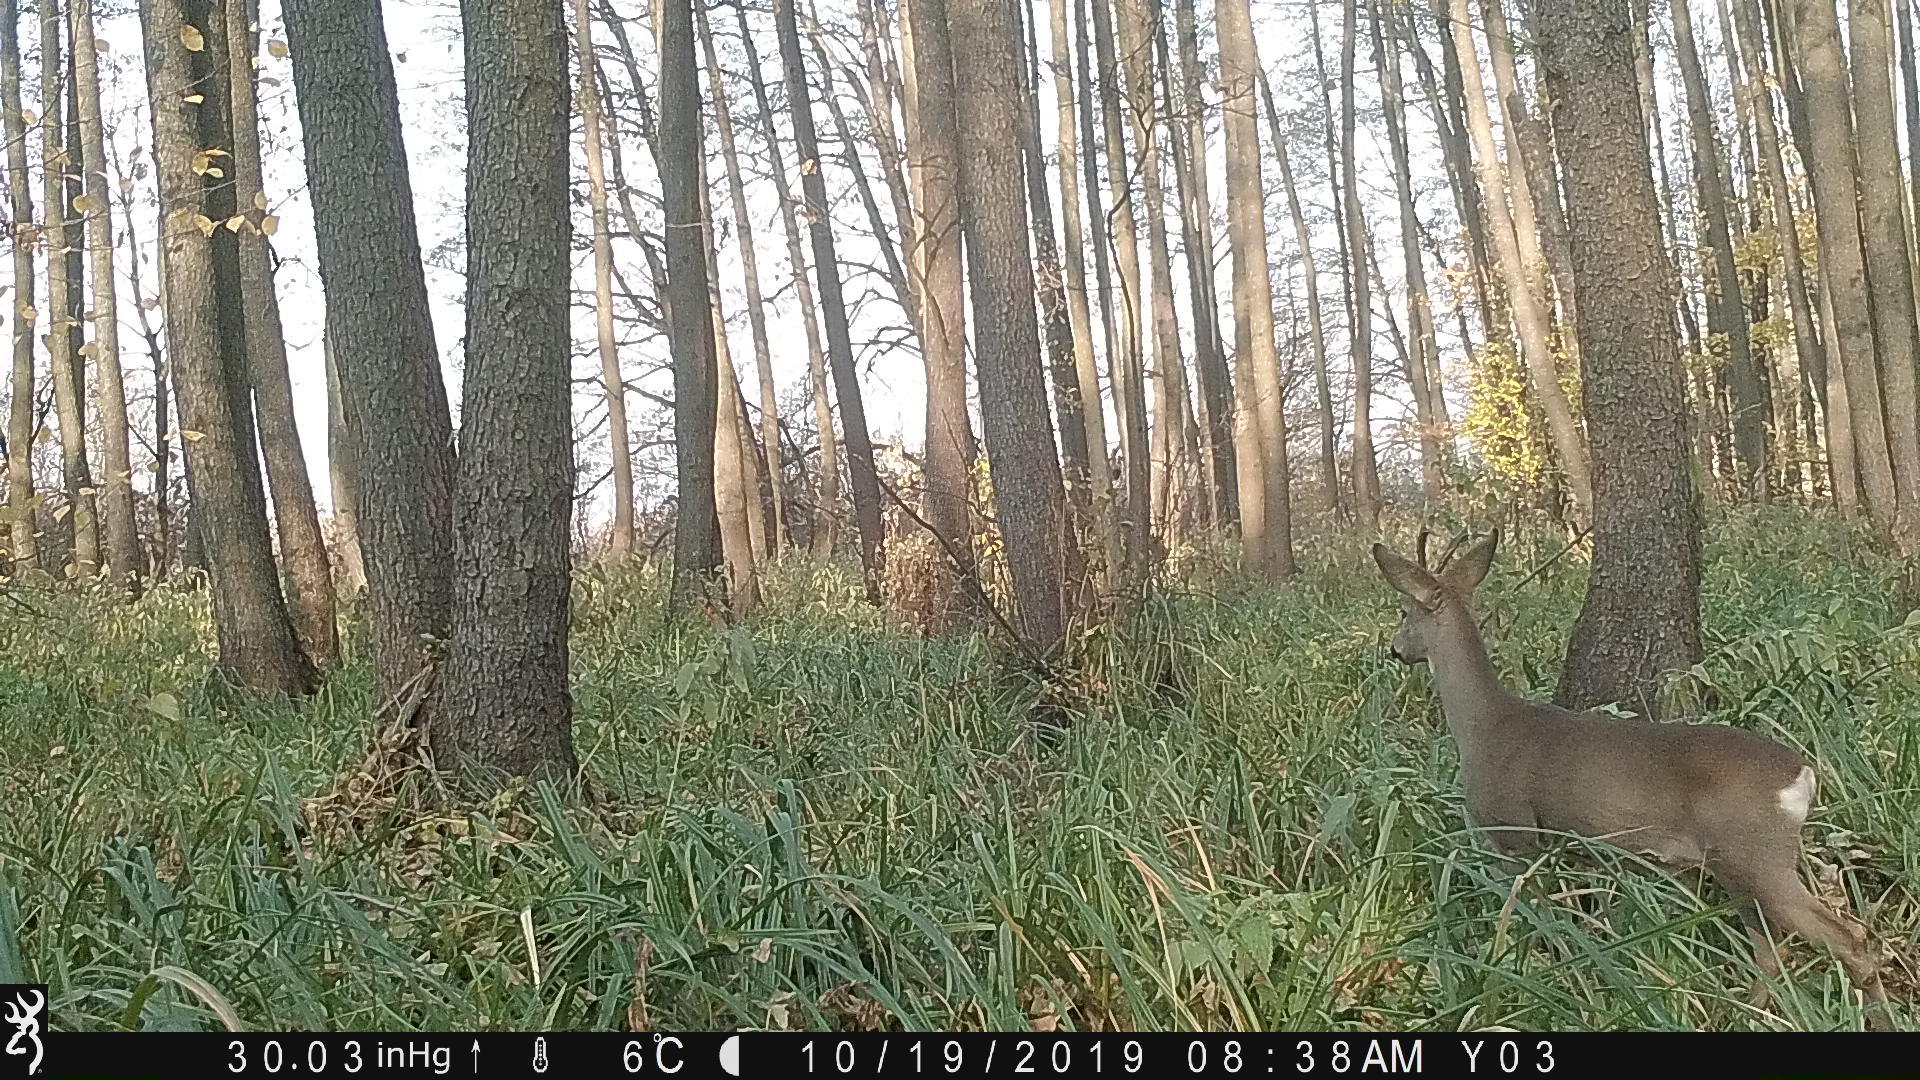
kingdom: Animalia
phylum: Chordata
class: Mammalia
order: Artiodactyla
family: Cervidae
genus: Capreolus
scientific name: Capreolus capreolus
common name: Western roe deer
